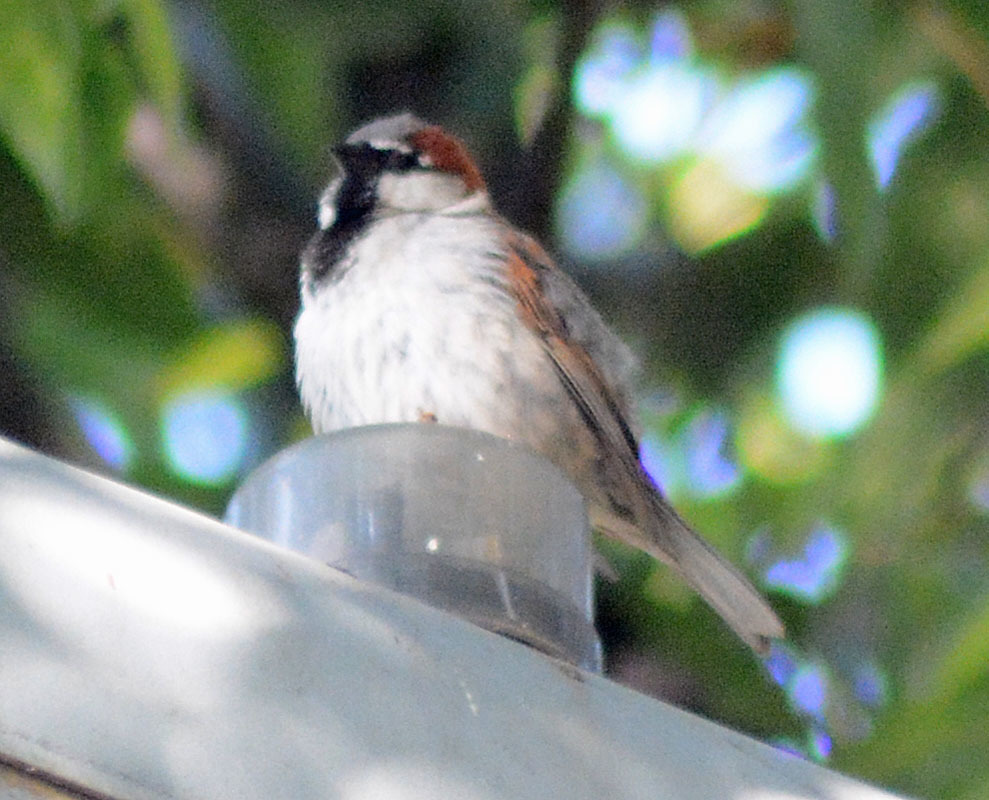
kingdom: Animalia
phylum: Chordata
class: Aves
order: Passeriformes
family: Passeridae
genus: Passer
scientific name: Passer domesticus
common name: House sparrow
